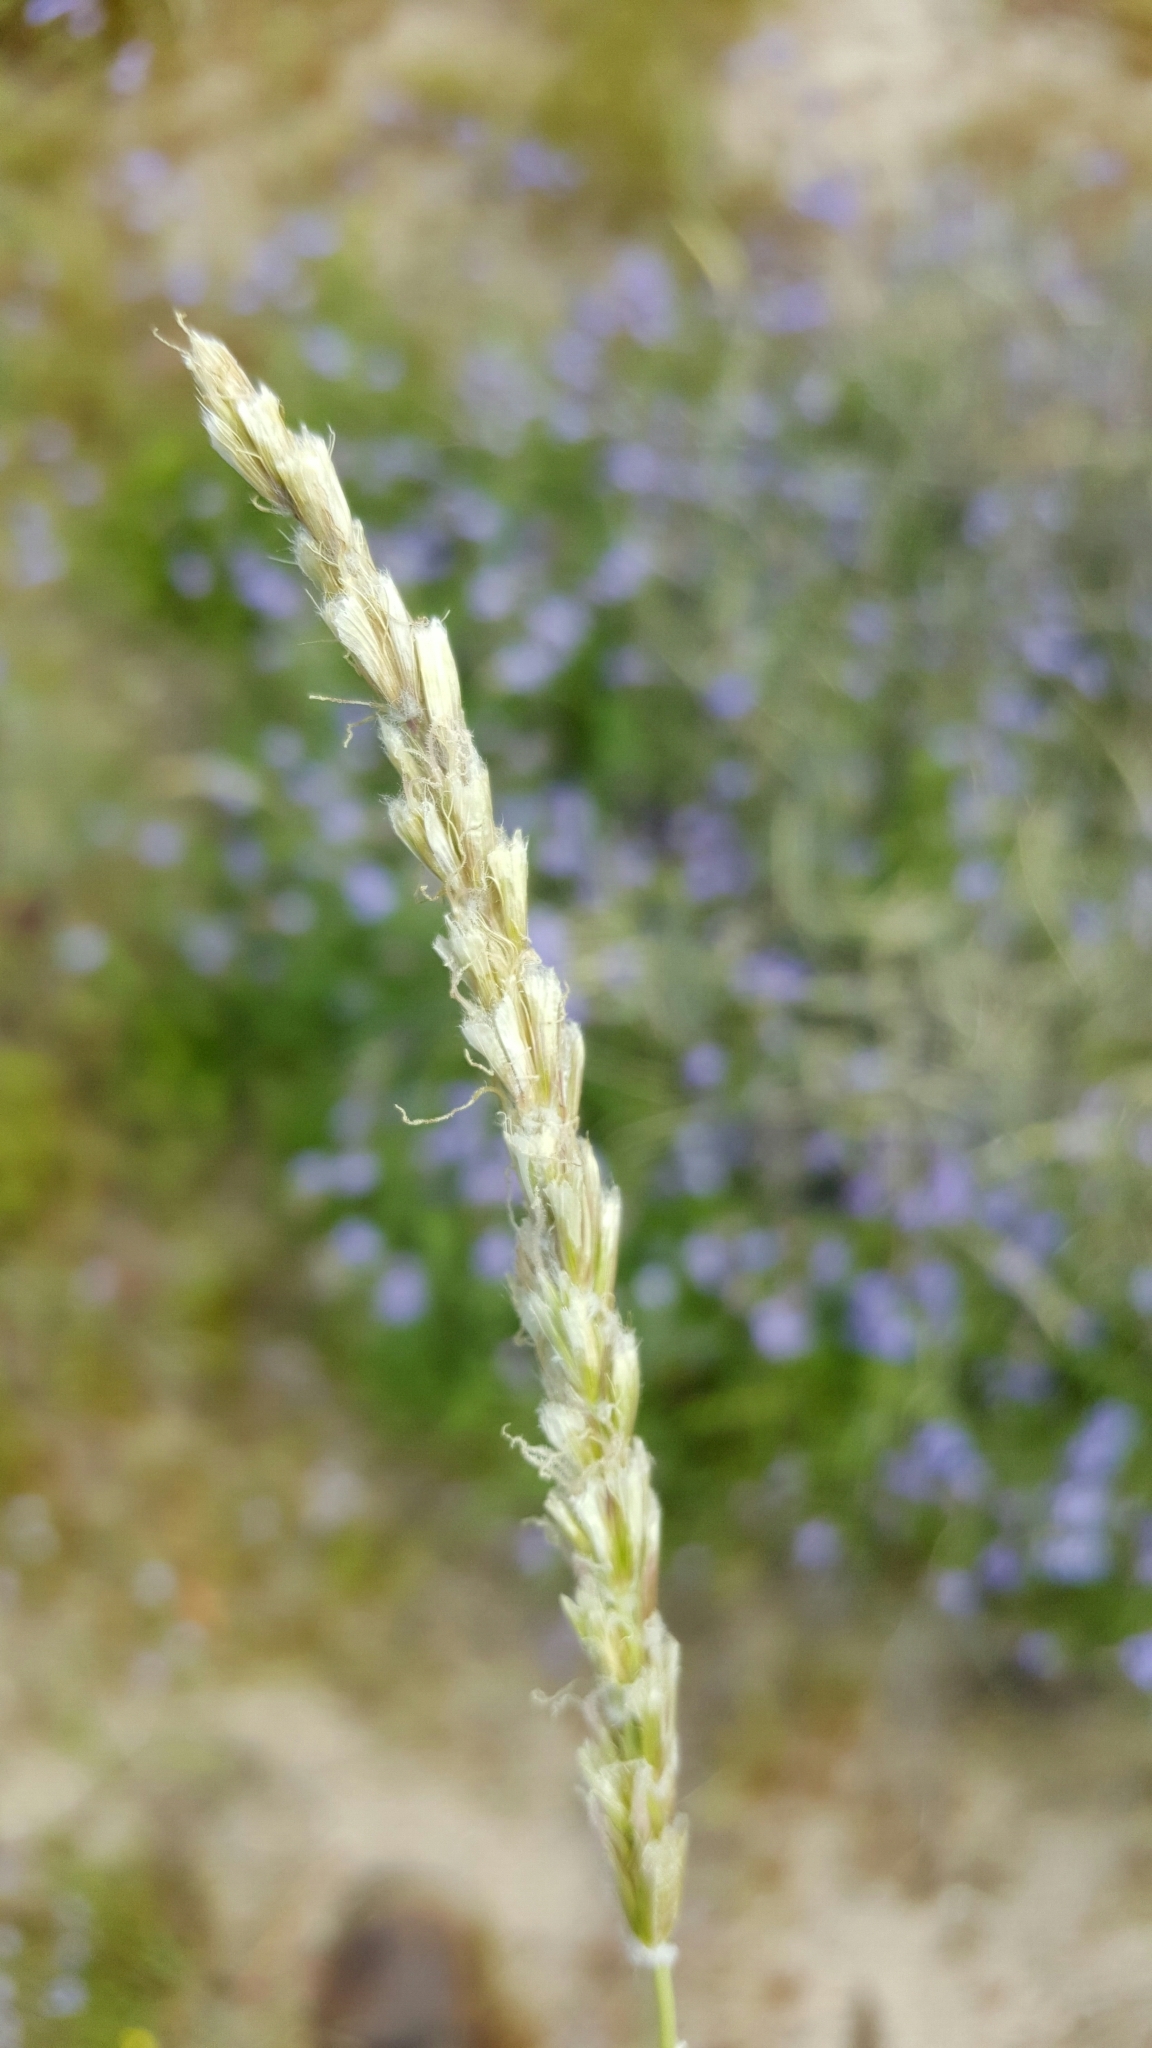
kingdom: Plantae
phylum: Tracheophyta
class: Liliopsida
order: Poales
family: Poaceae
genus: Hilaria
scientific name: Hilaria rigida
